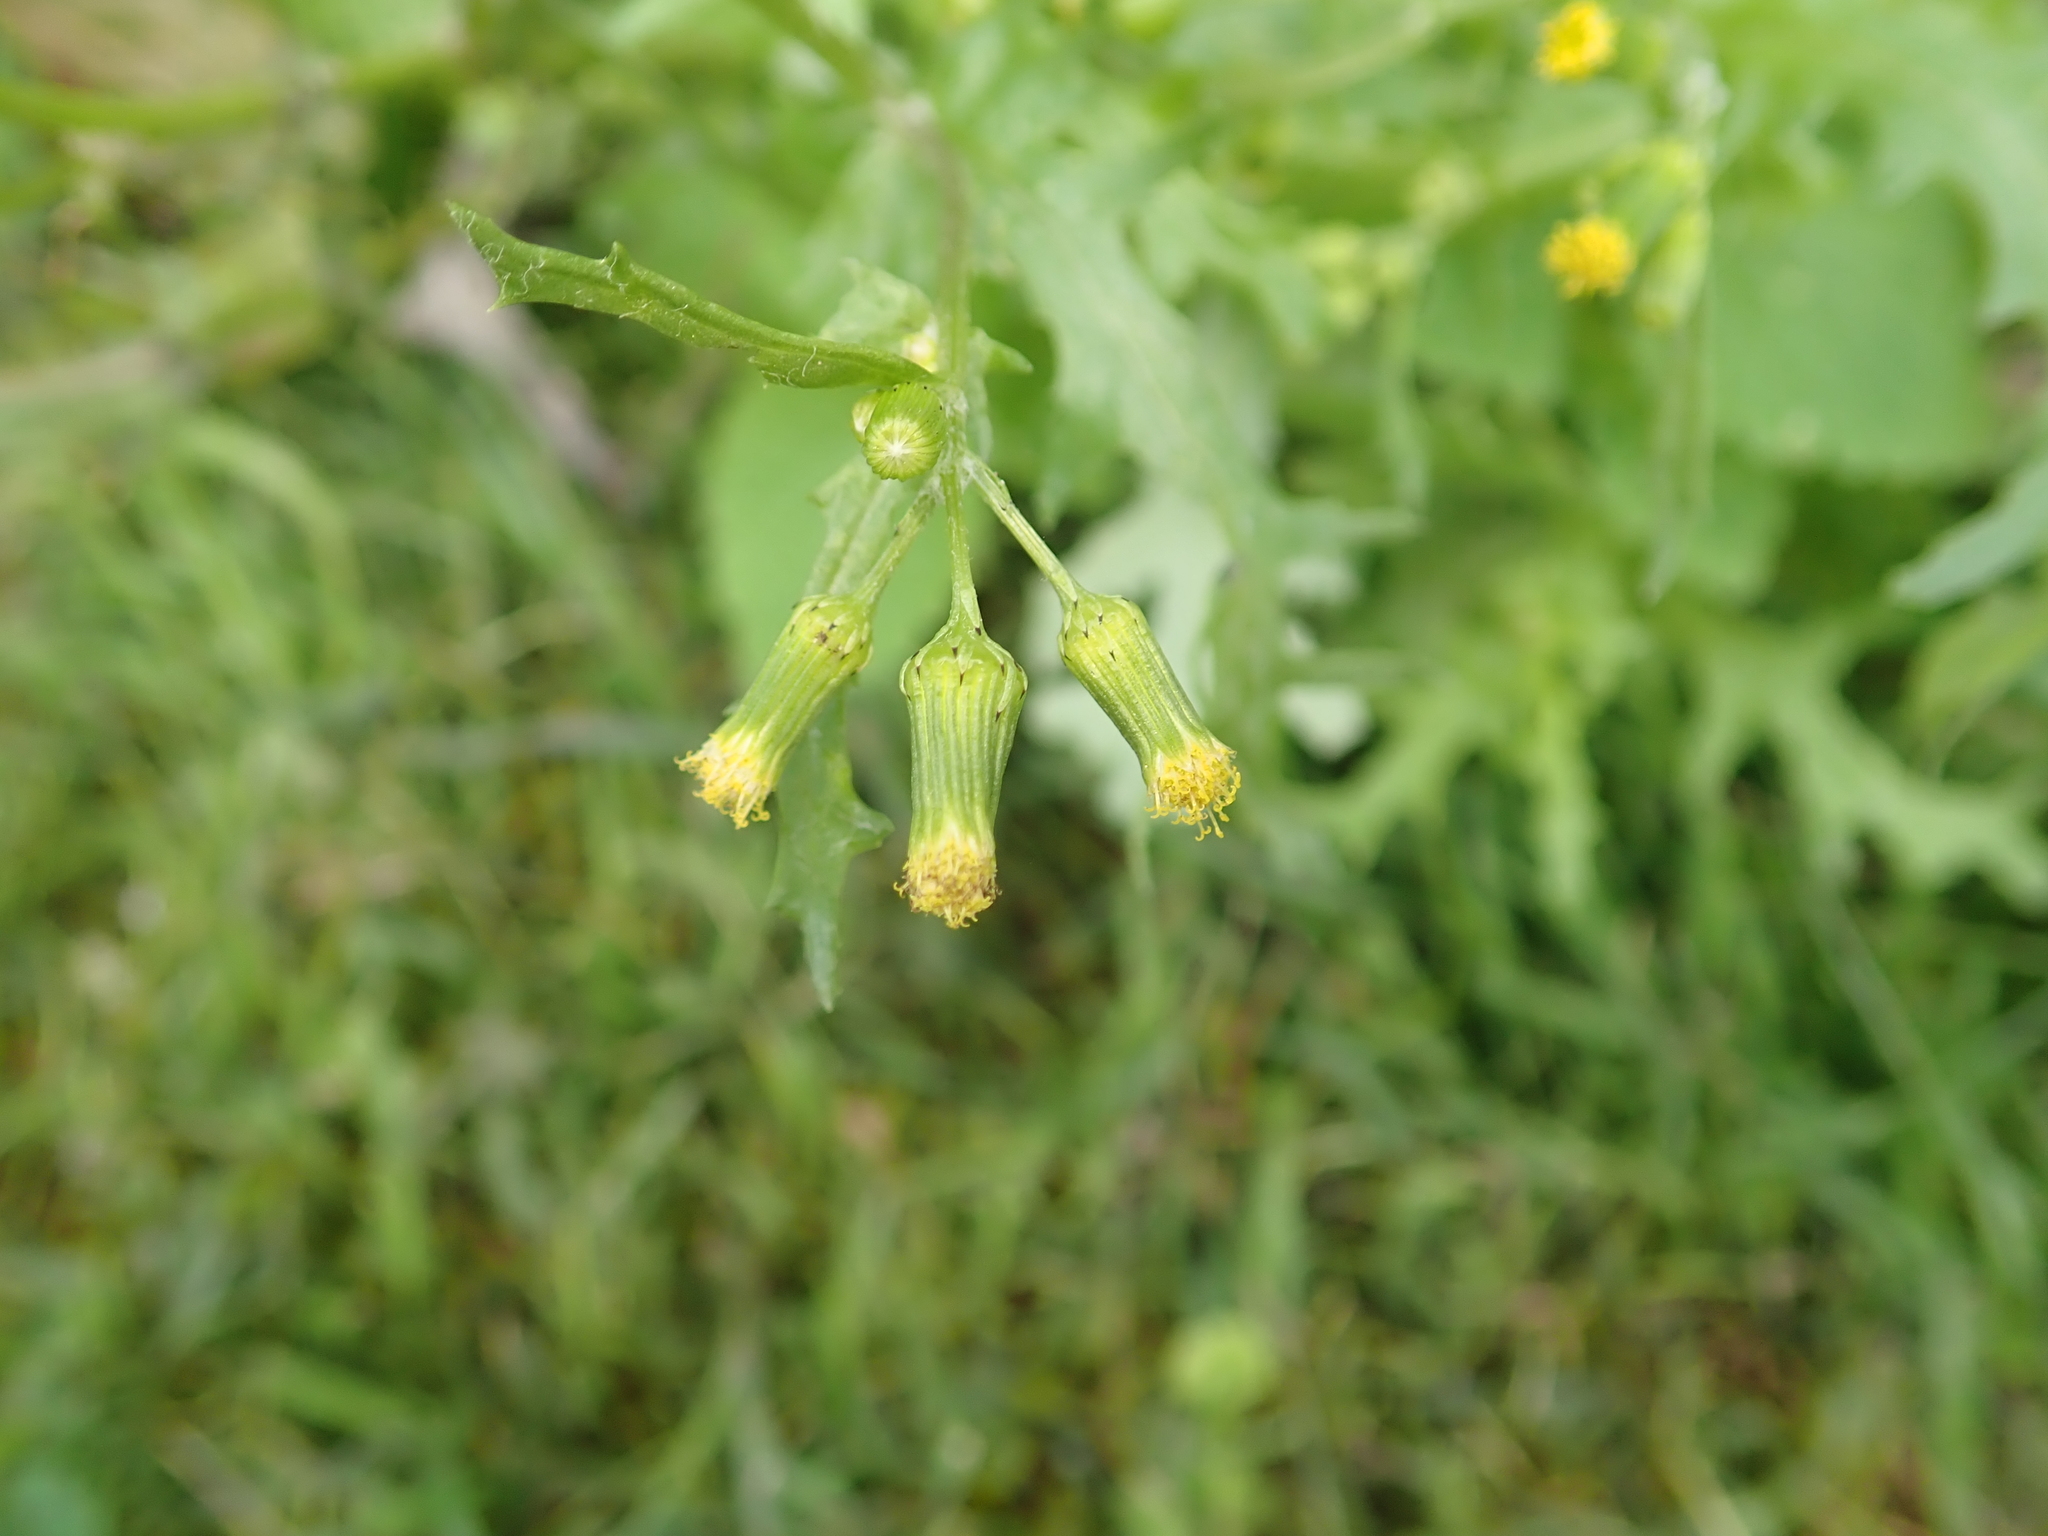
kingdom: Plantae
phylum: Tracheophyta
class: Magnoliopsida
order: Asterales
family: Asteraceae
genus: Senecio
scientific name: Senecio vulgaris
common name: Old-man-in-the-spring
